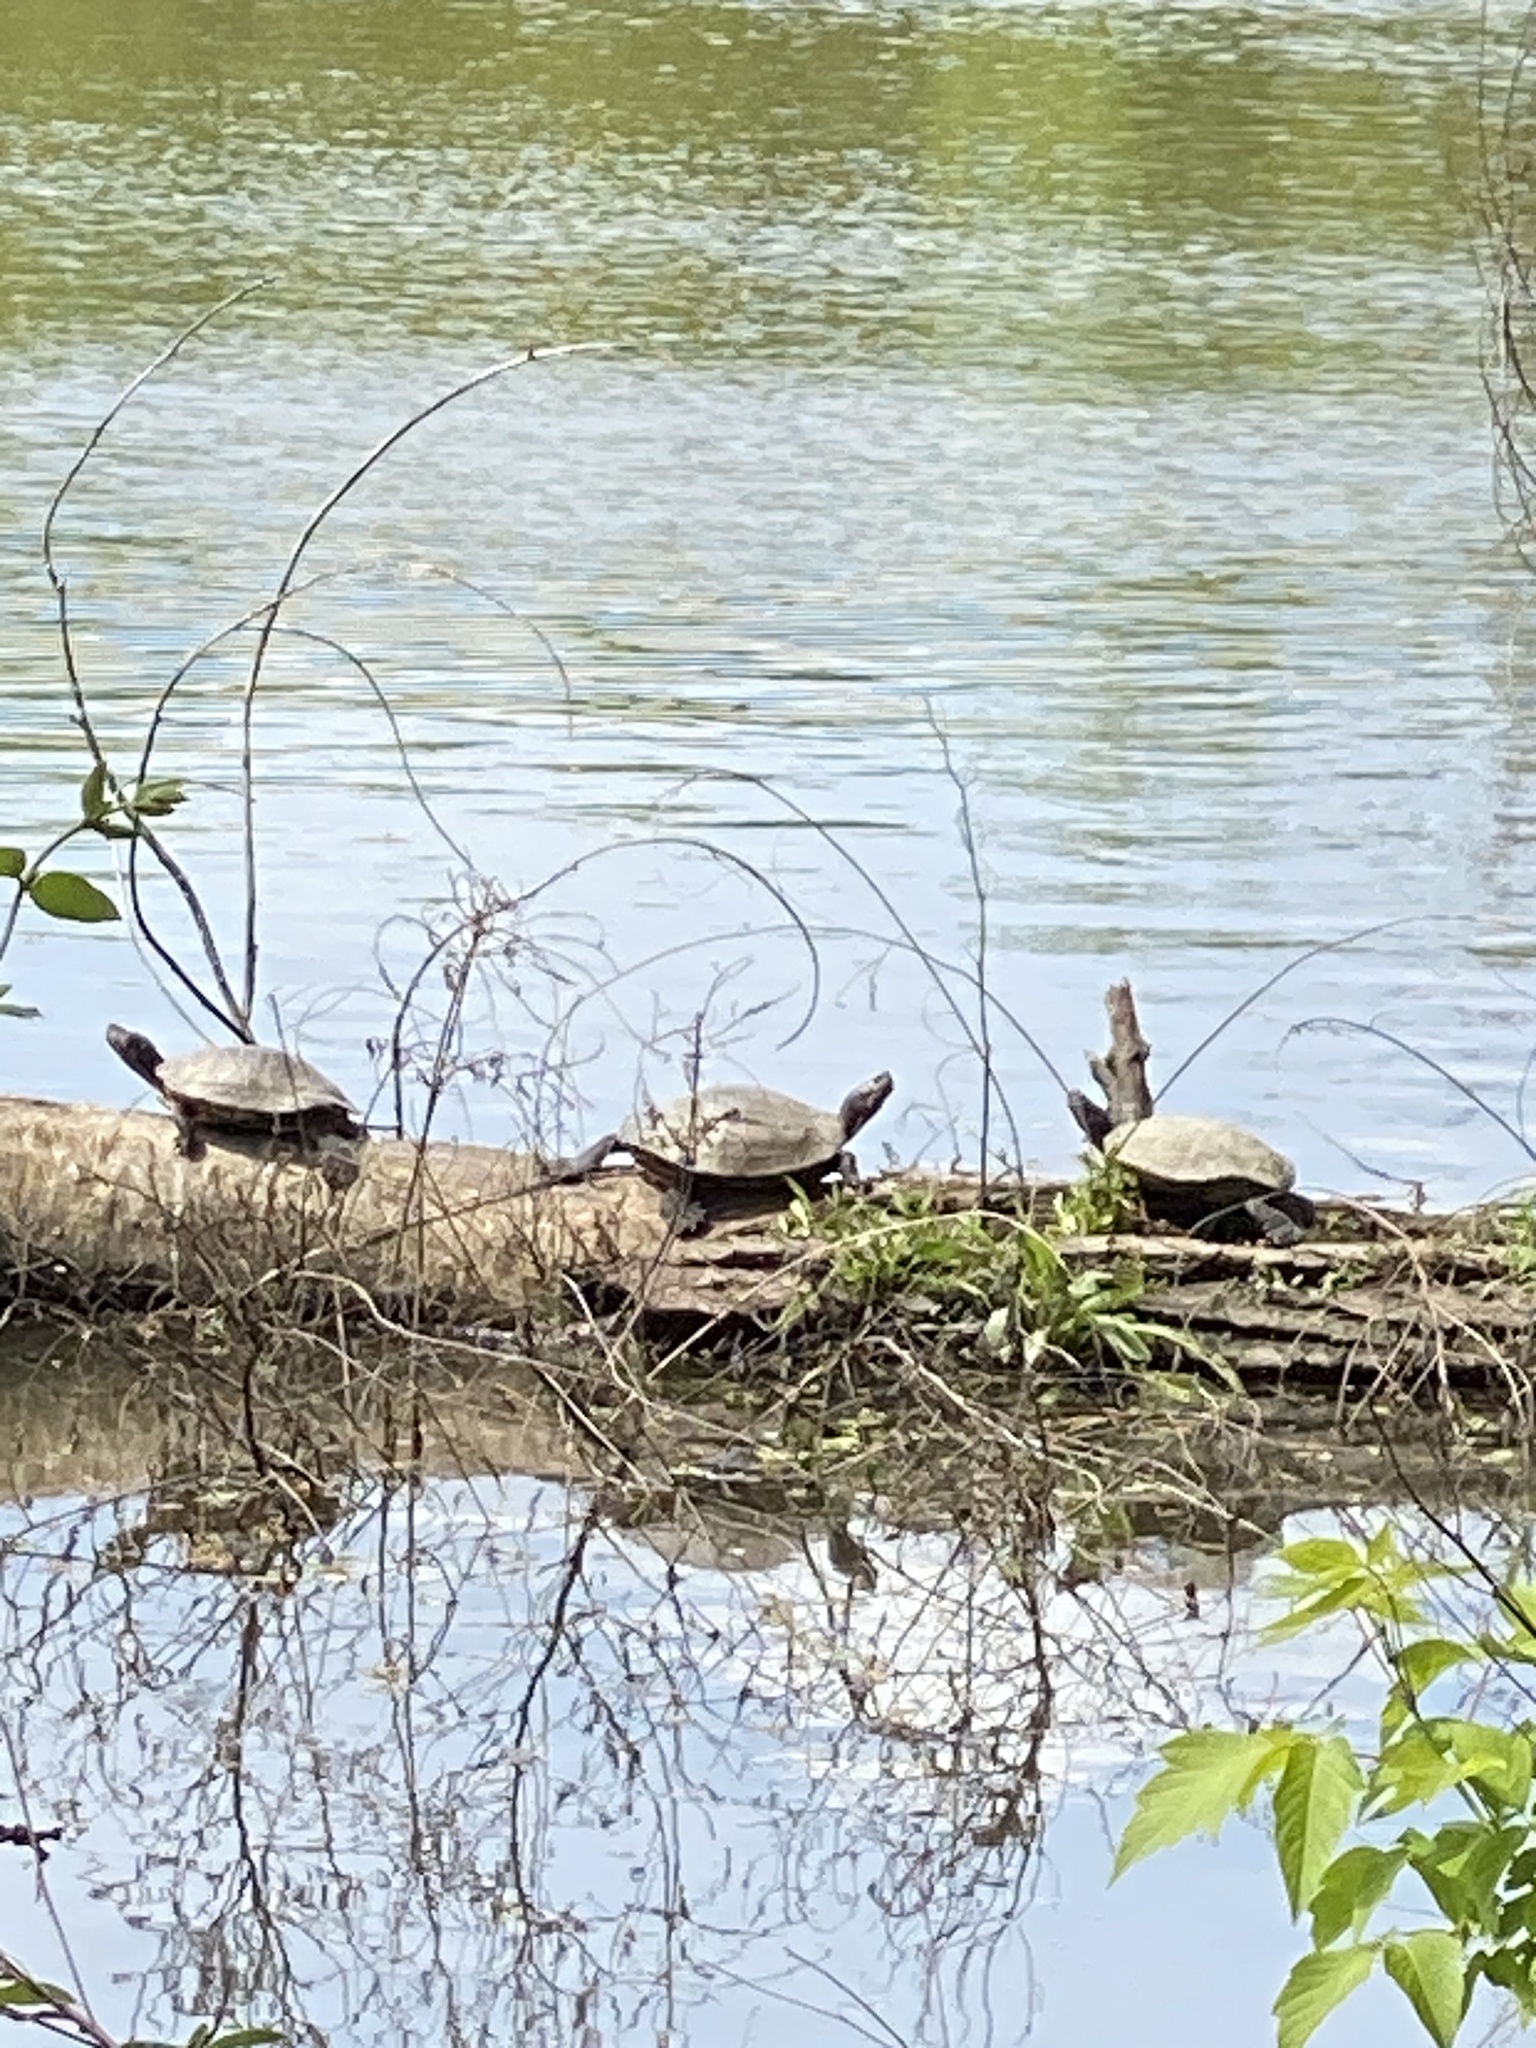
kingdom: Animalia
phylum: Chordata
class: Testudines
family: Emydidae
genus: Trachemys
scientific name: Trachemys scripta
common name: Slider
